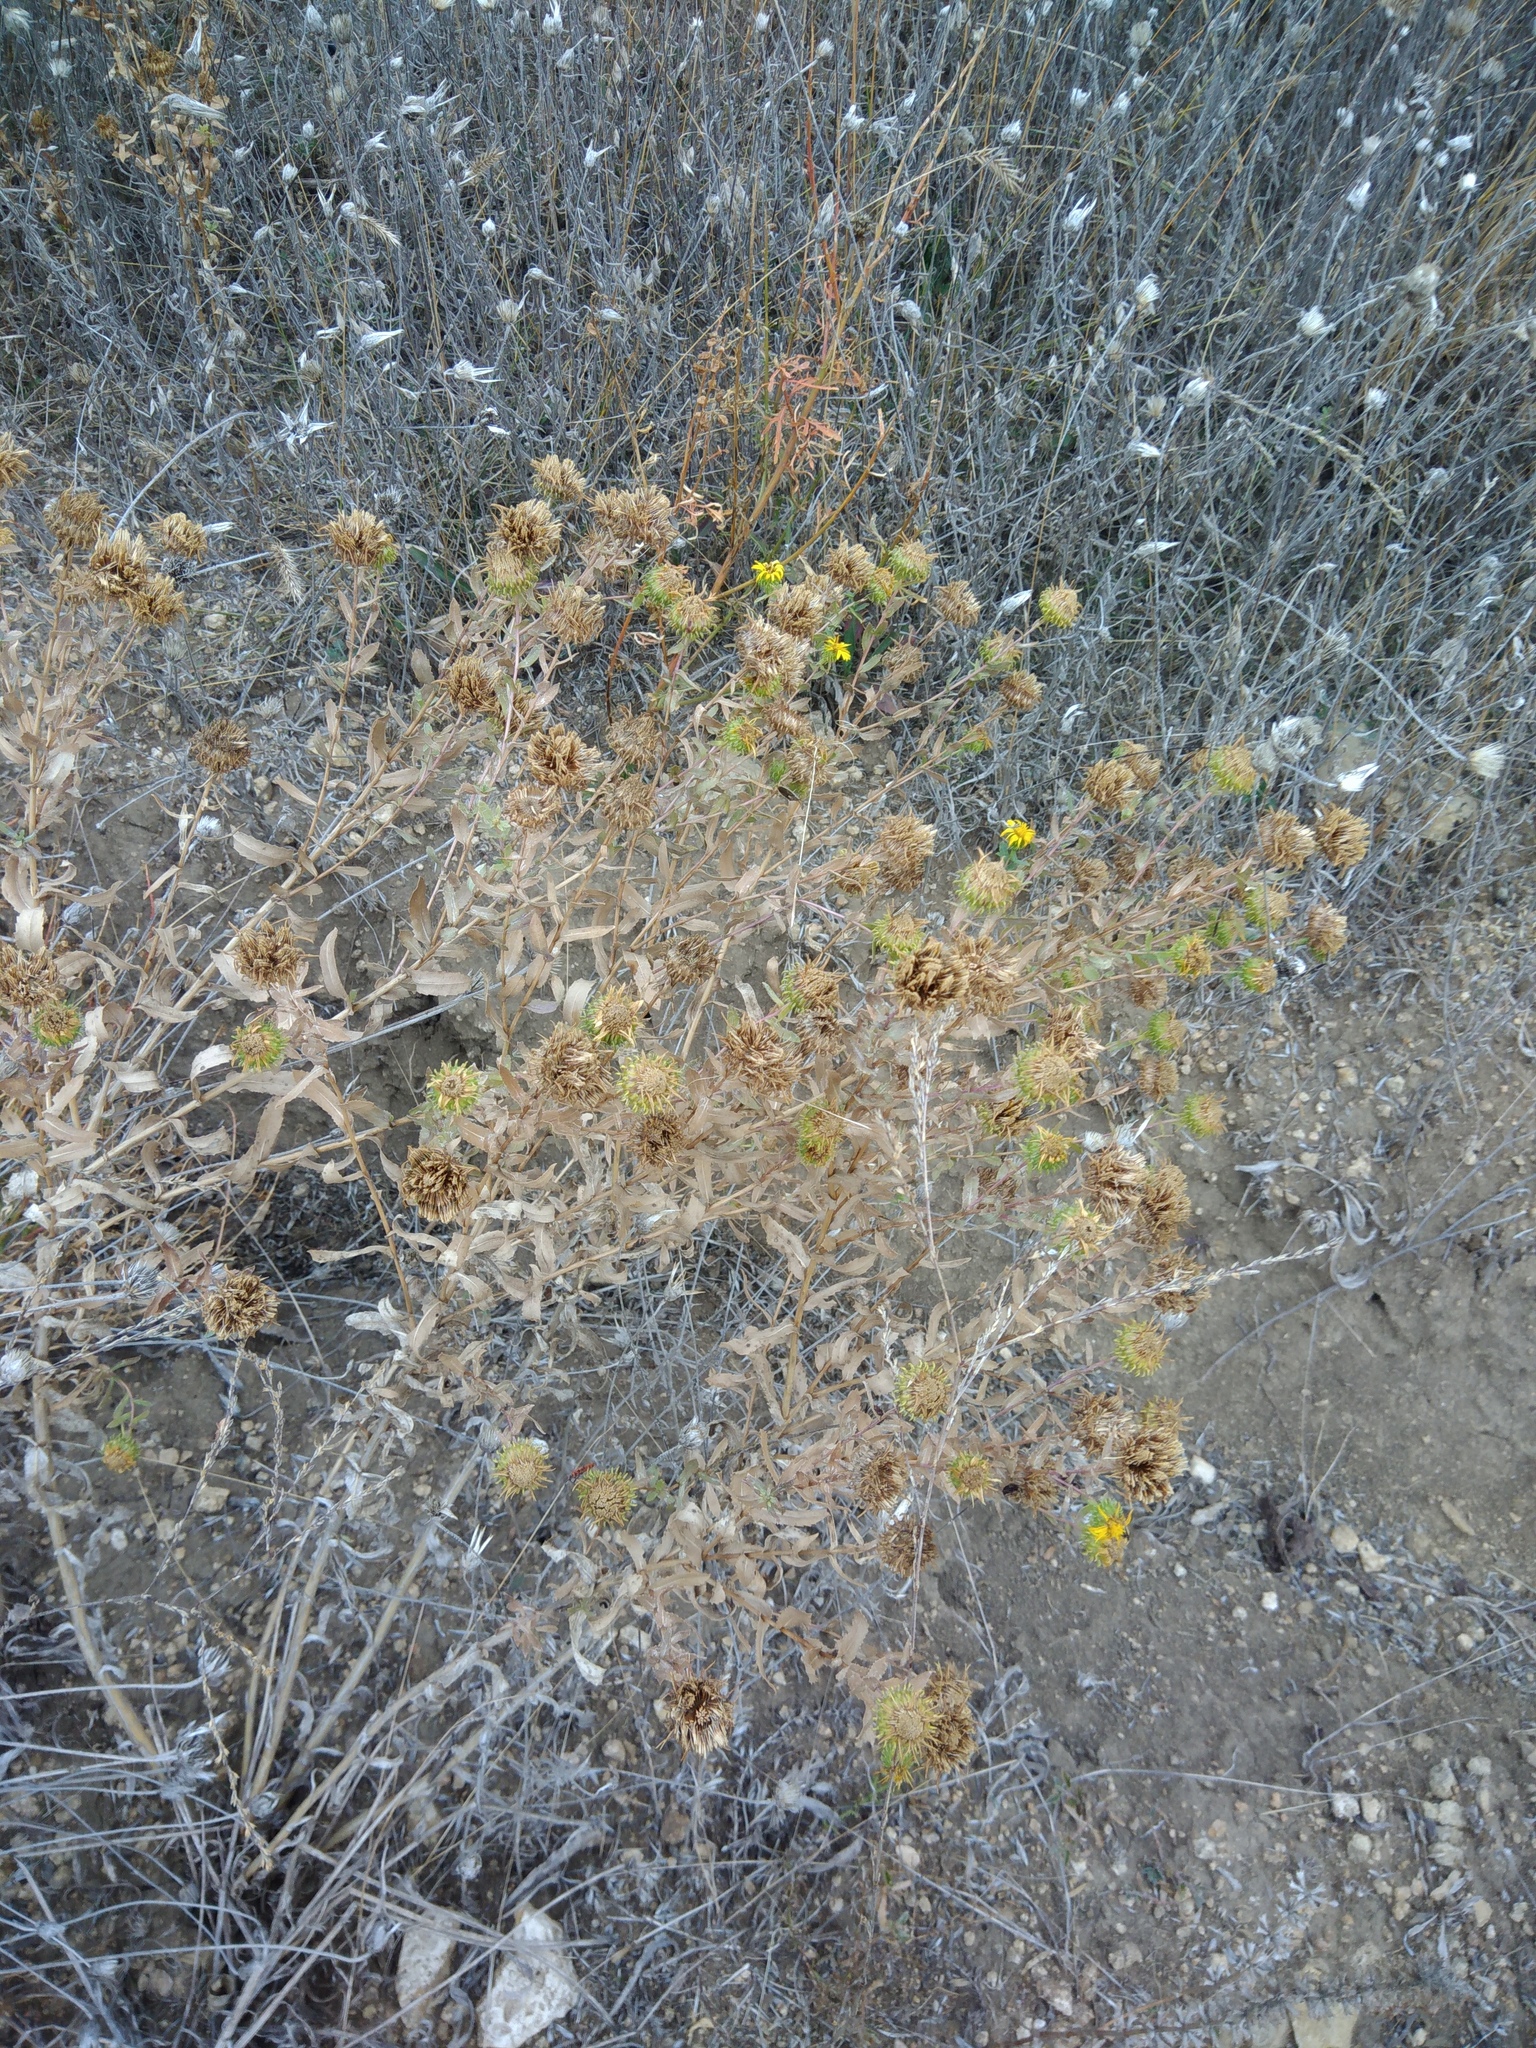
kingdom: Plantae
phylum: Tracheophyta
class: Magnoliopsida
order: Asterales
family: Asteraceae
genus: Grindelia
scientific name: Grindelia squarrosa
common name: Curly-cup gumweed
